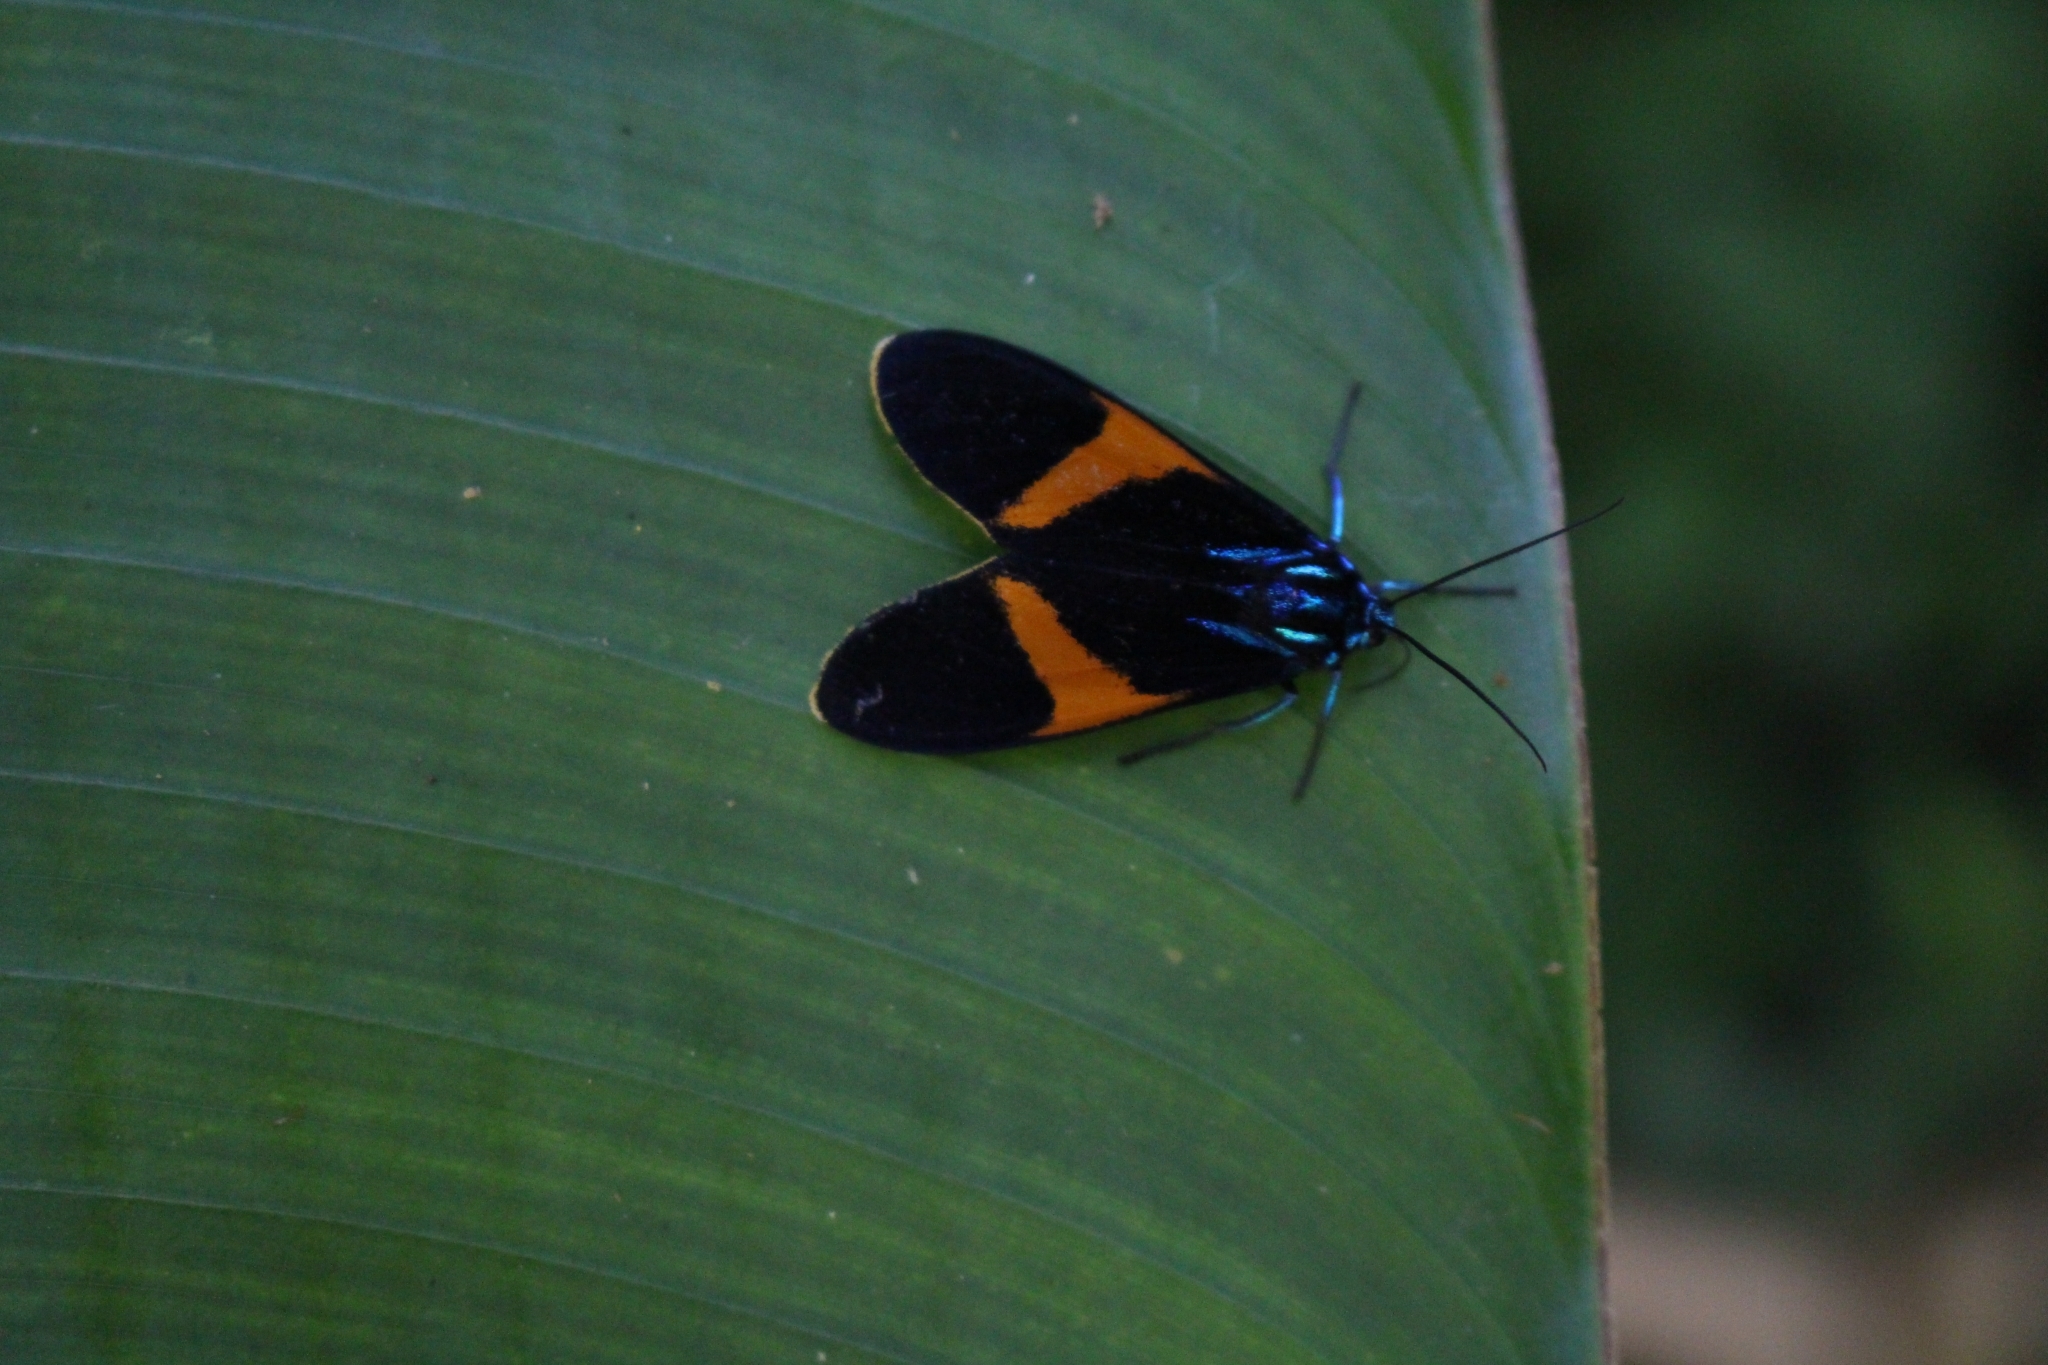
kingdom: Animalia
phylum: Arthropoda
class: Insecta
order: Lepidoptera
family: Erebidae
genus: Cyanopepla
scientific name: Cyanopepla panamensis
